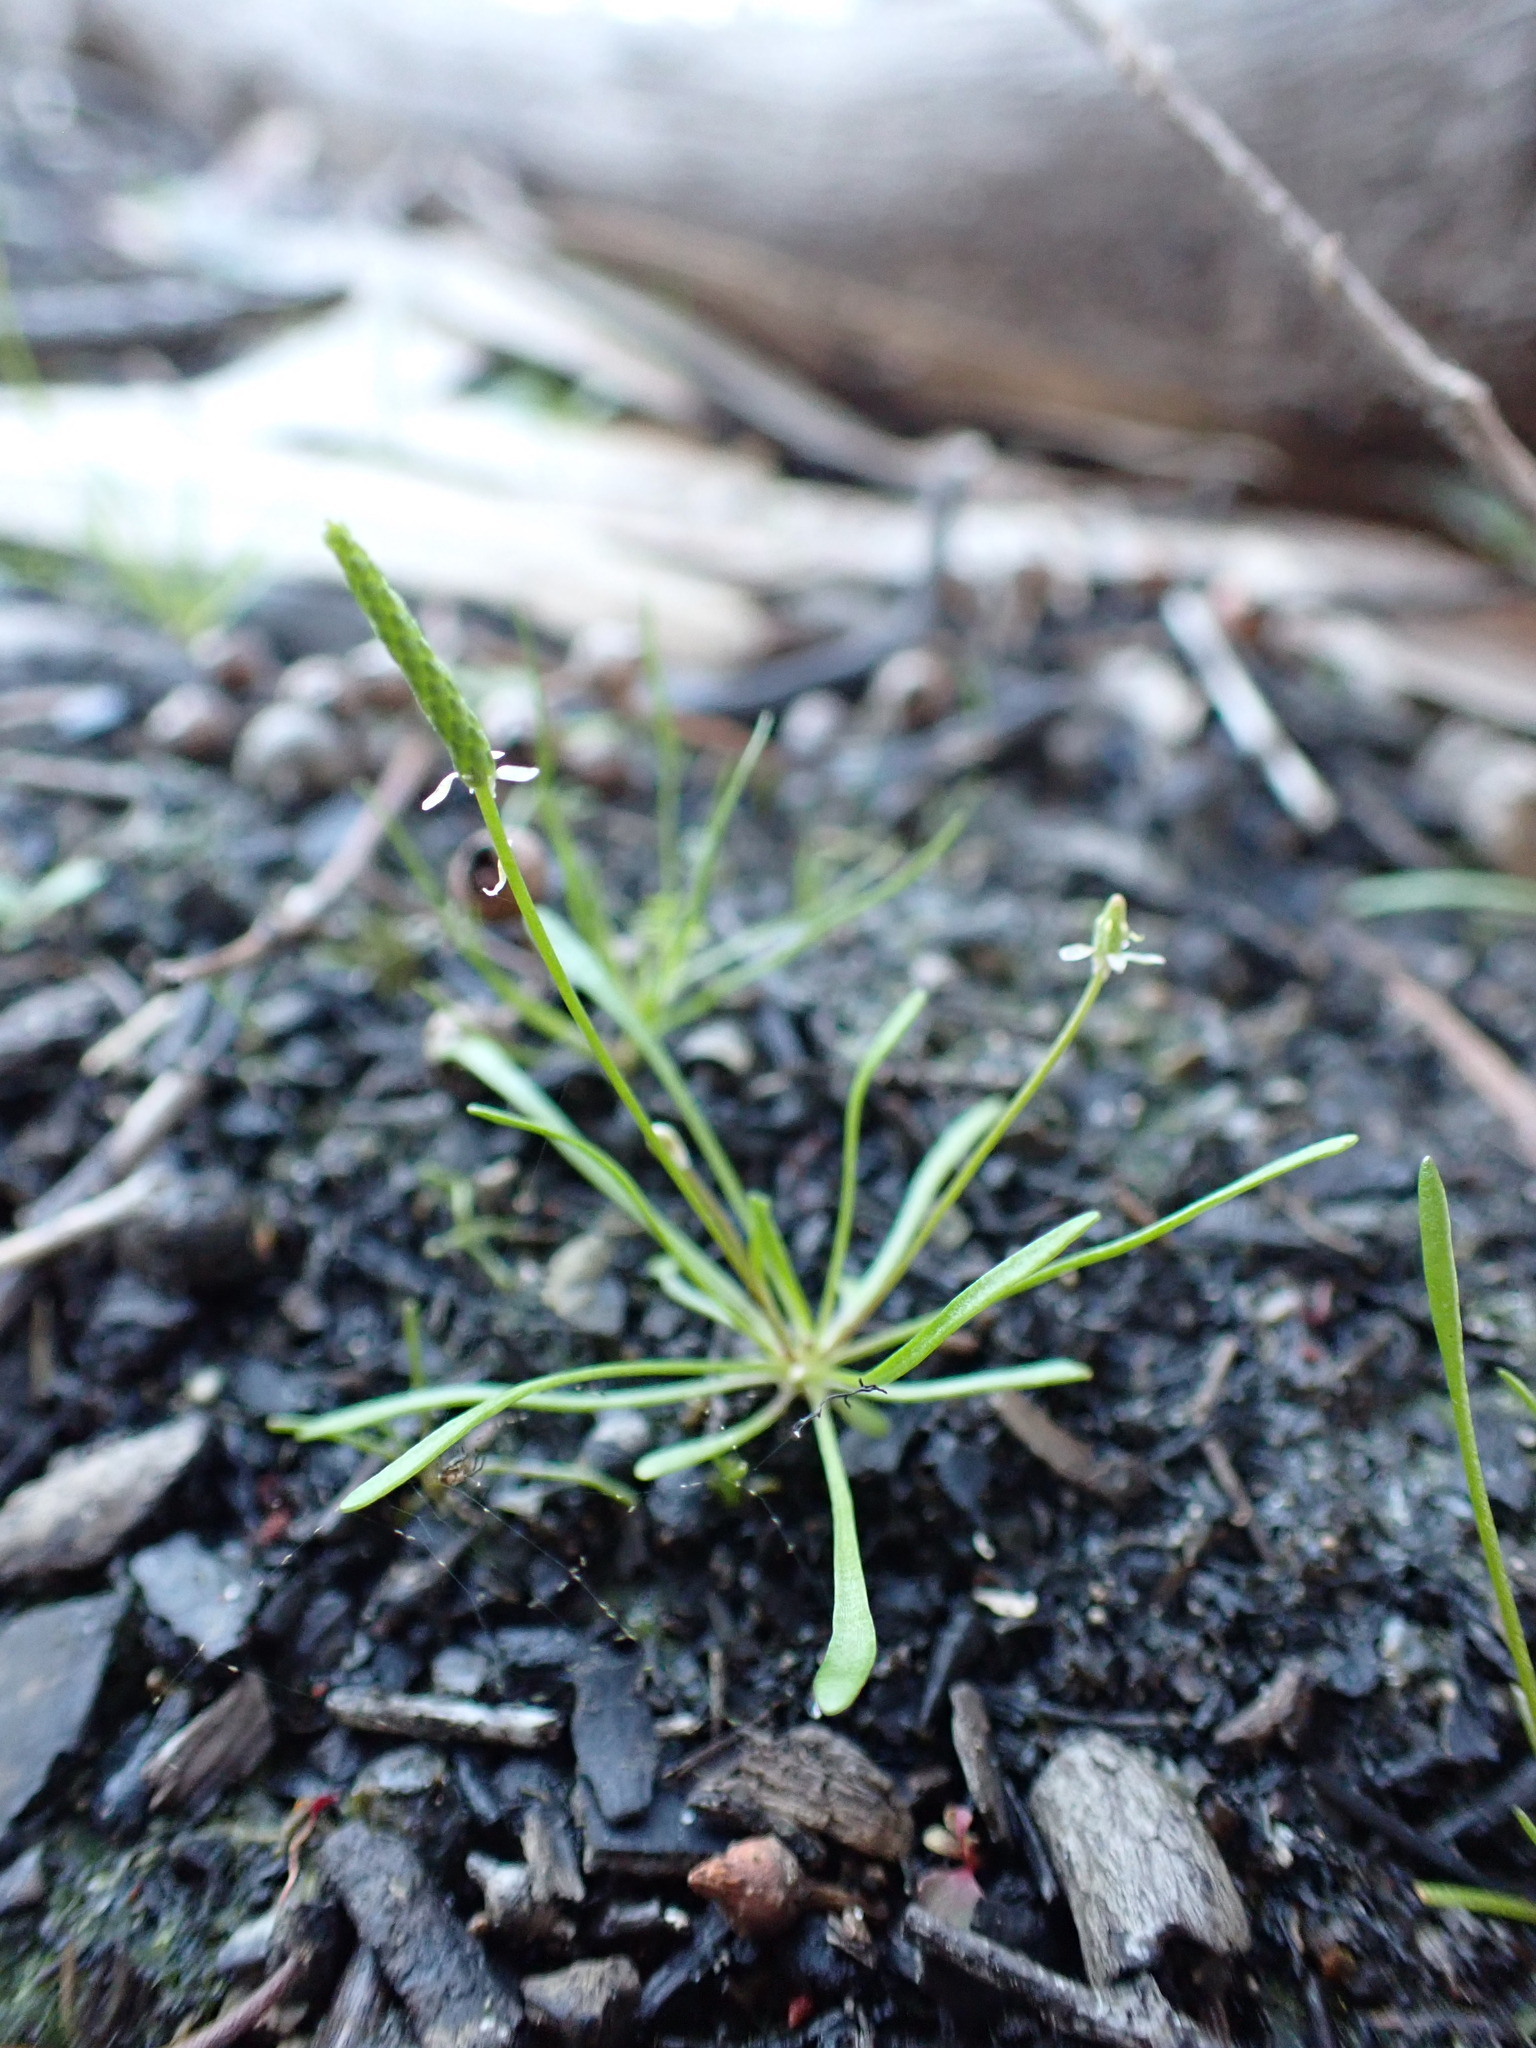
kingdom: Plantae
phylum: Tracheophyta
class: Magnoliopsida
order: Ranunculales
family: Ranunculaceae
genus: Myosurus
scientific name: Myosurus australis
